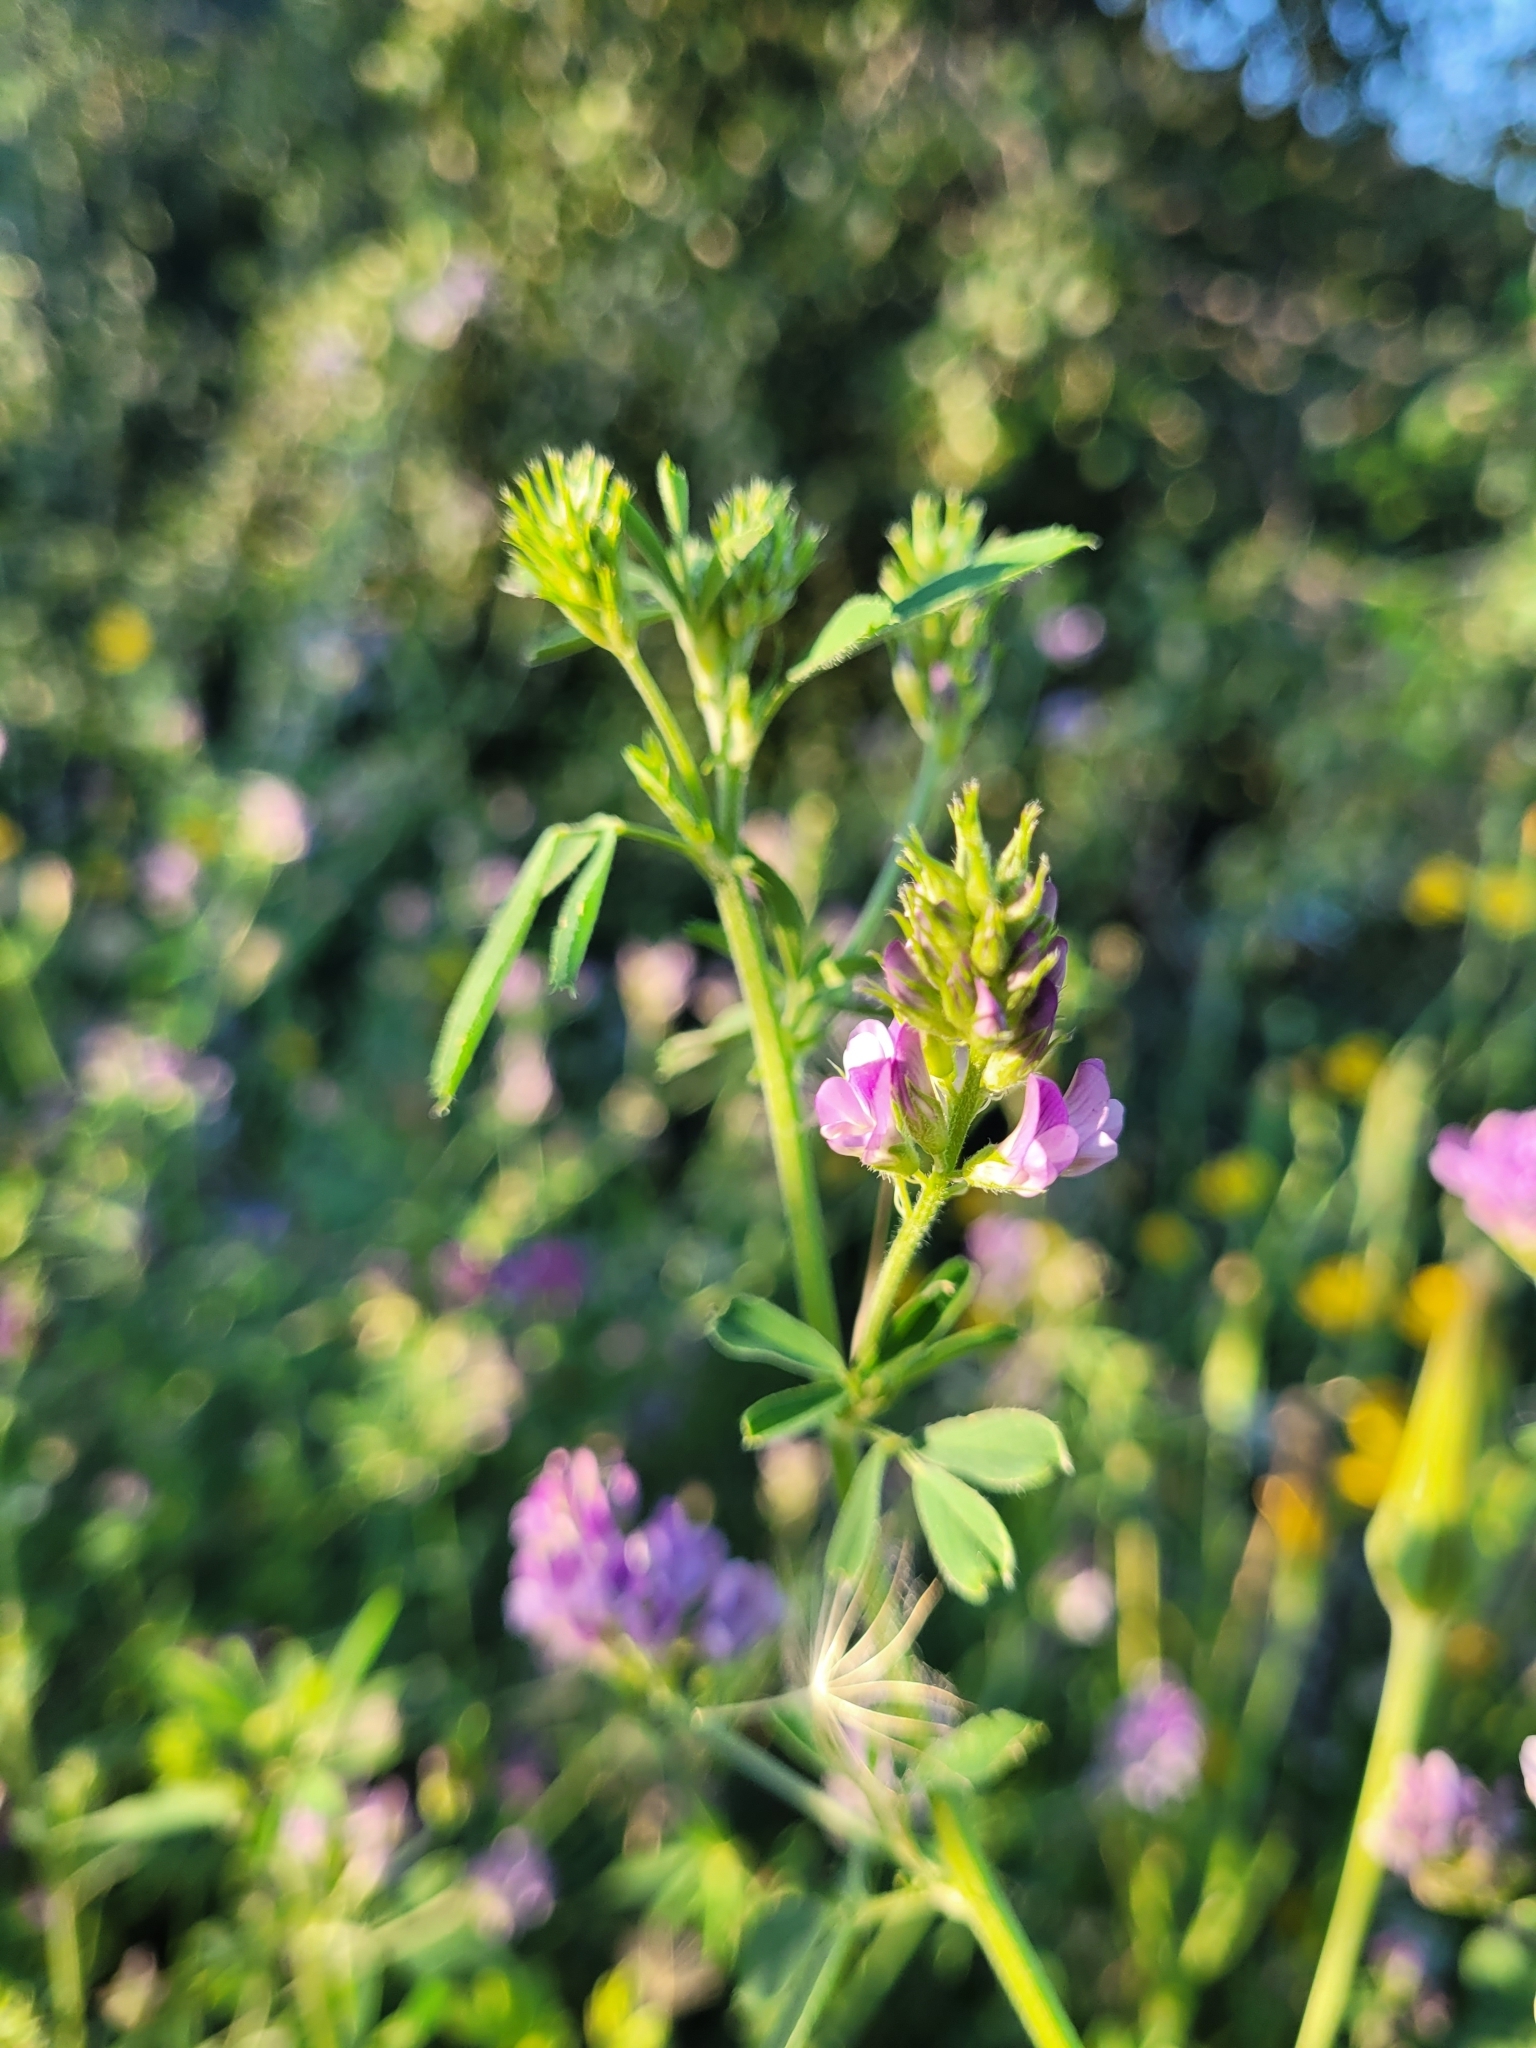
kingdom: Plantae
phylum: Tracheophyta
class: Magnoliopsida
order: Fabales
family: Fabaceae
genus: Medicago
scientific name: Medicago sativa
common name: Alfalfa
